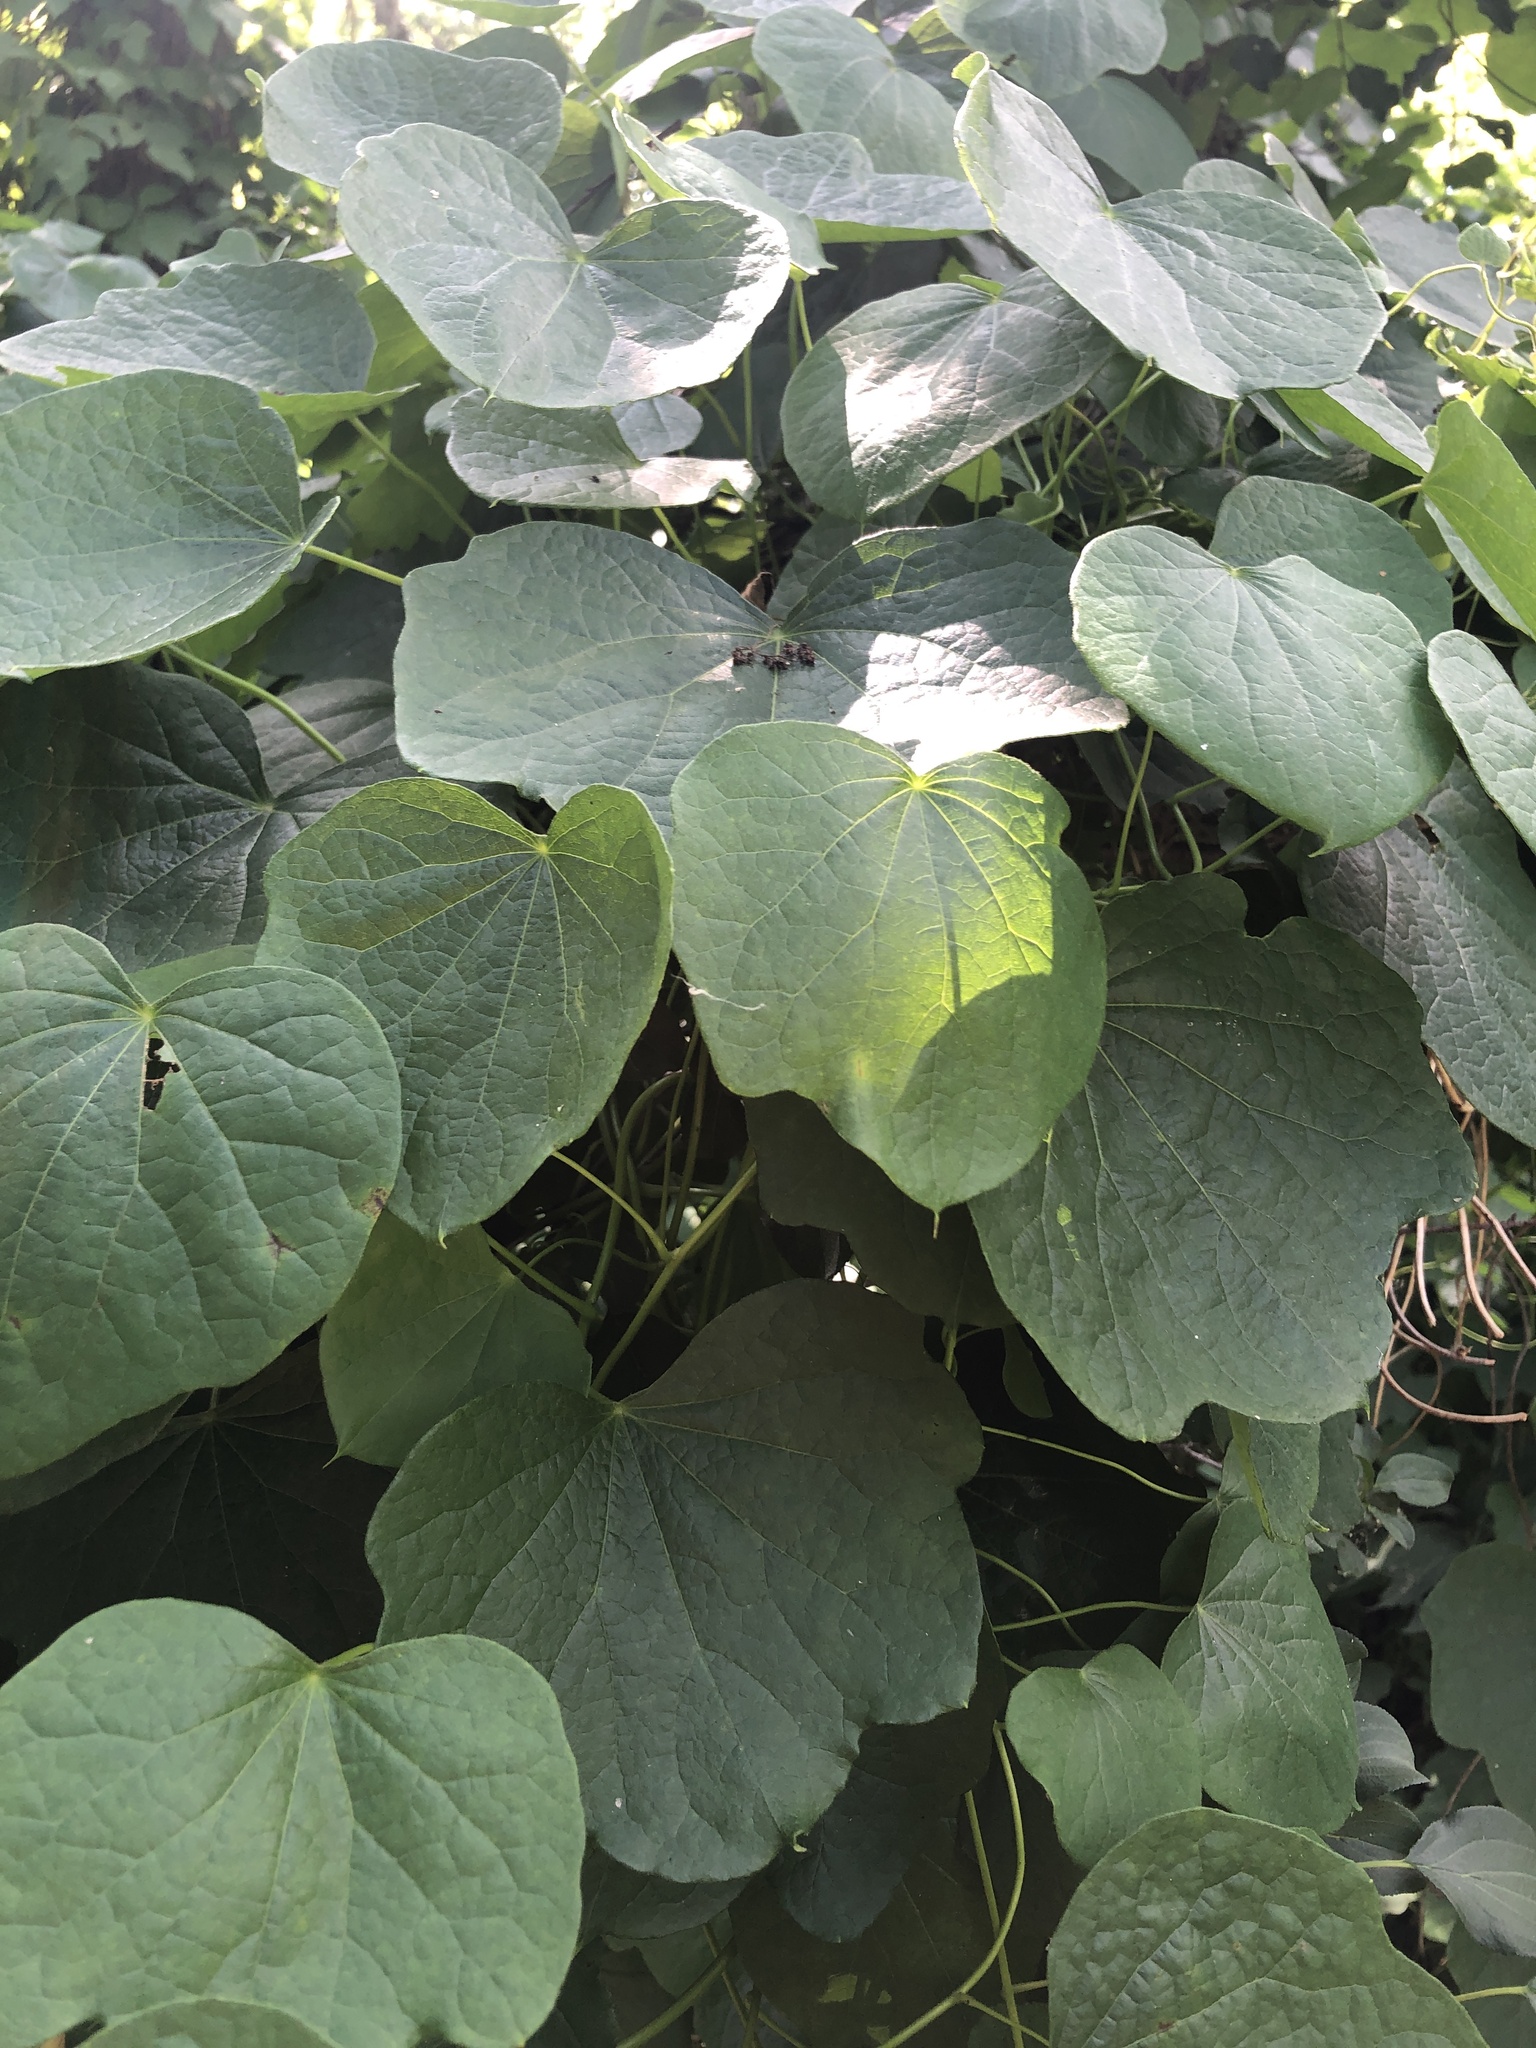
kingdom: Plantae
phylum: Tracheophyta
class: Magnoliopsida
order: Ranunculales
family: Menispermaceae
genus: Menispermum
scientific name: Menispermum canadense
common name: Moonseed
